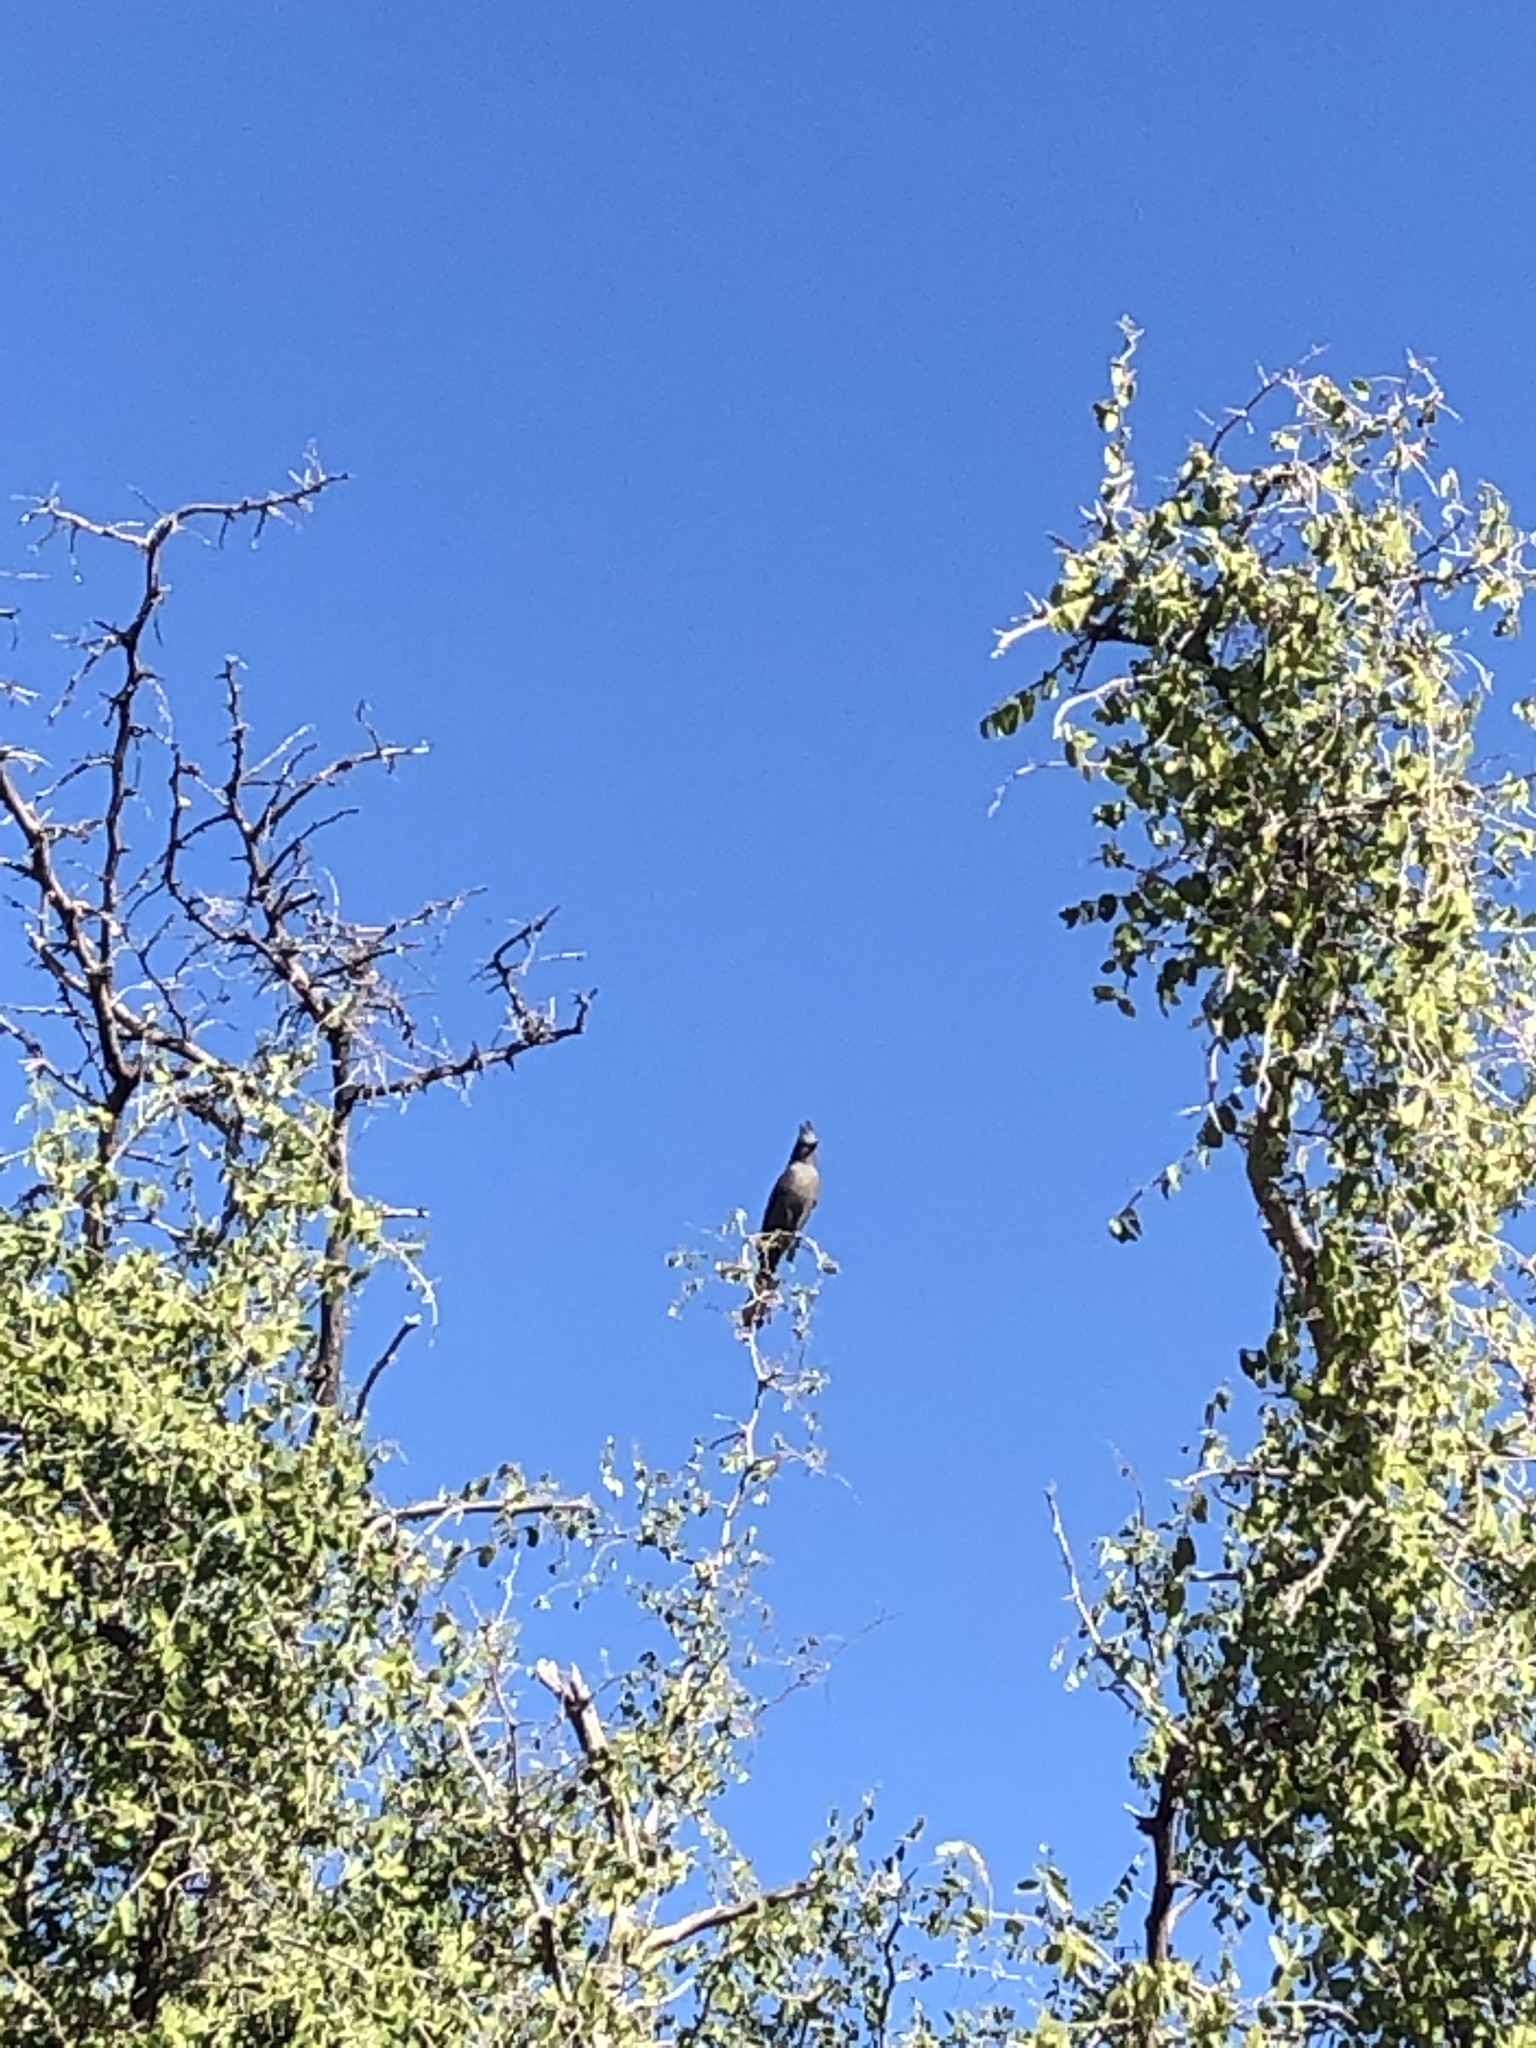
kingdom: Animalia
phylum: Chordata
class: Aves
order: Passeriformes
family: Ptilogonatidae
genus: Phainopepla
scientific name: Phainopepla nitens
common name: Phainopepla
